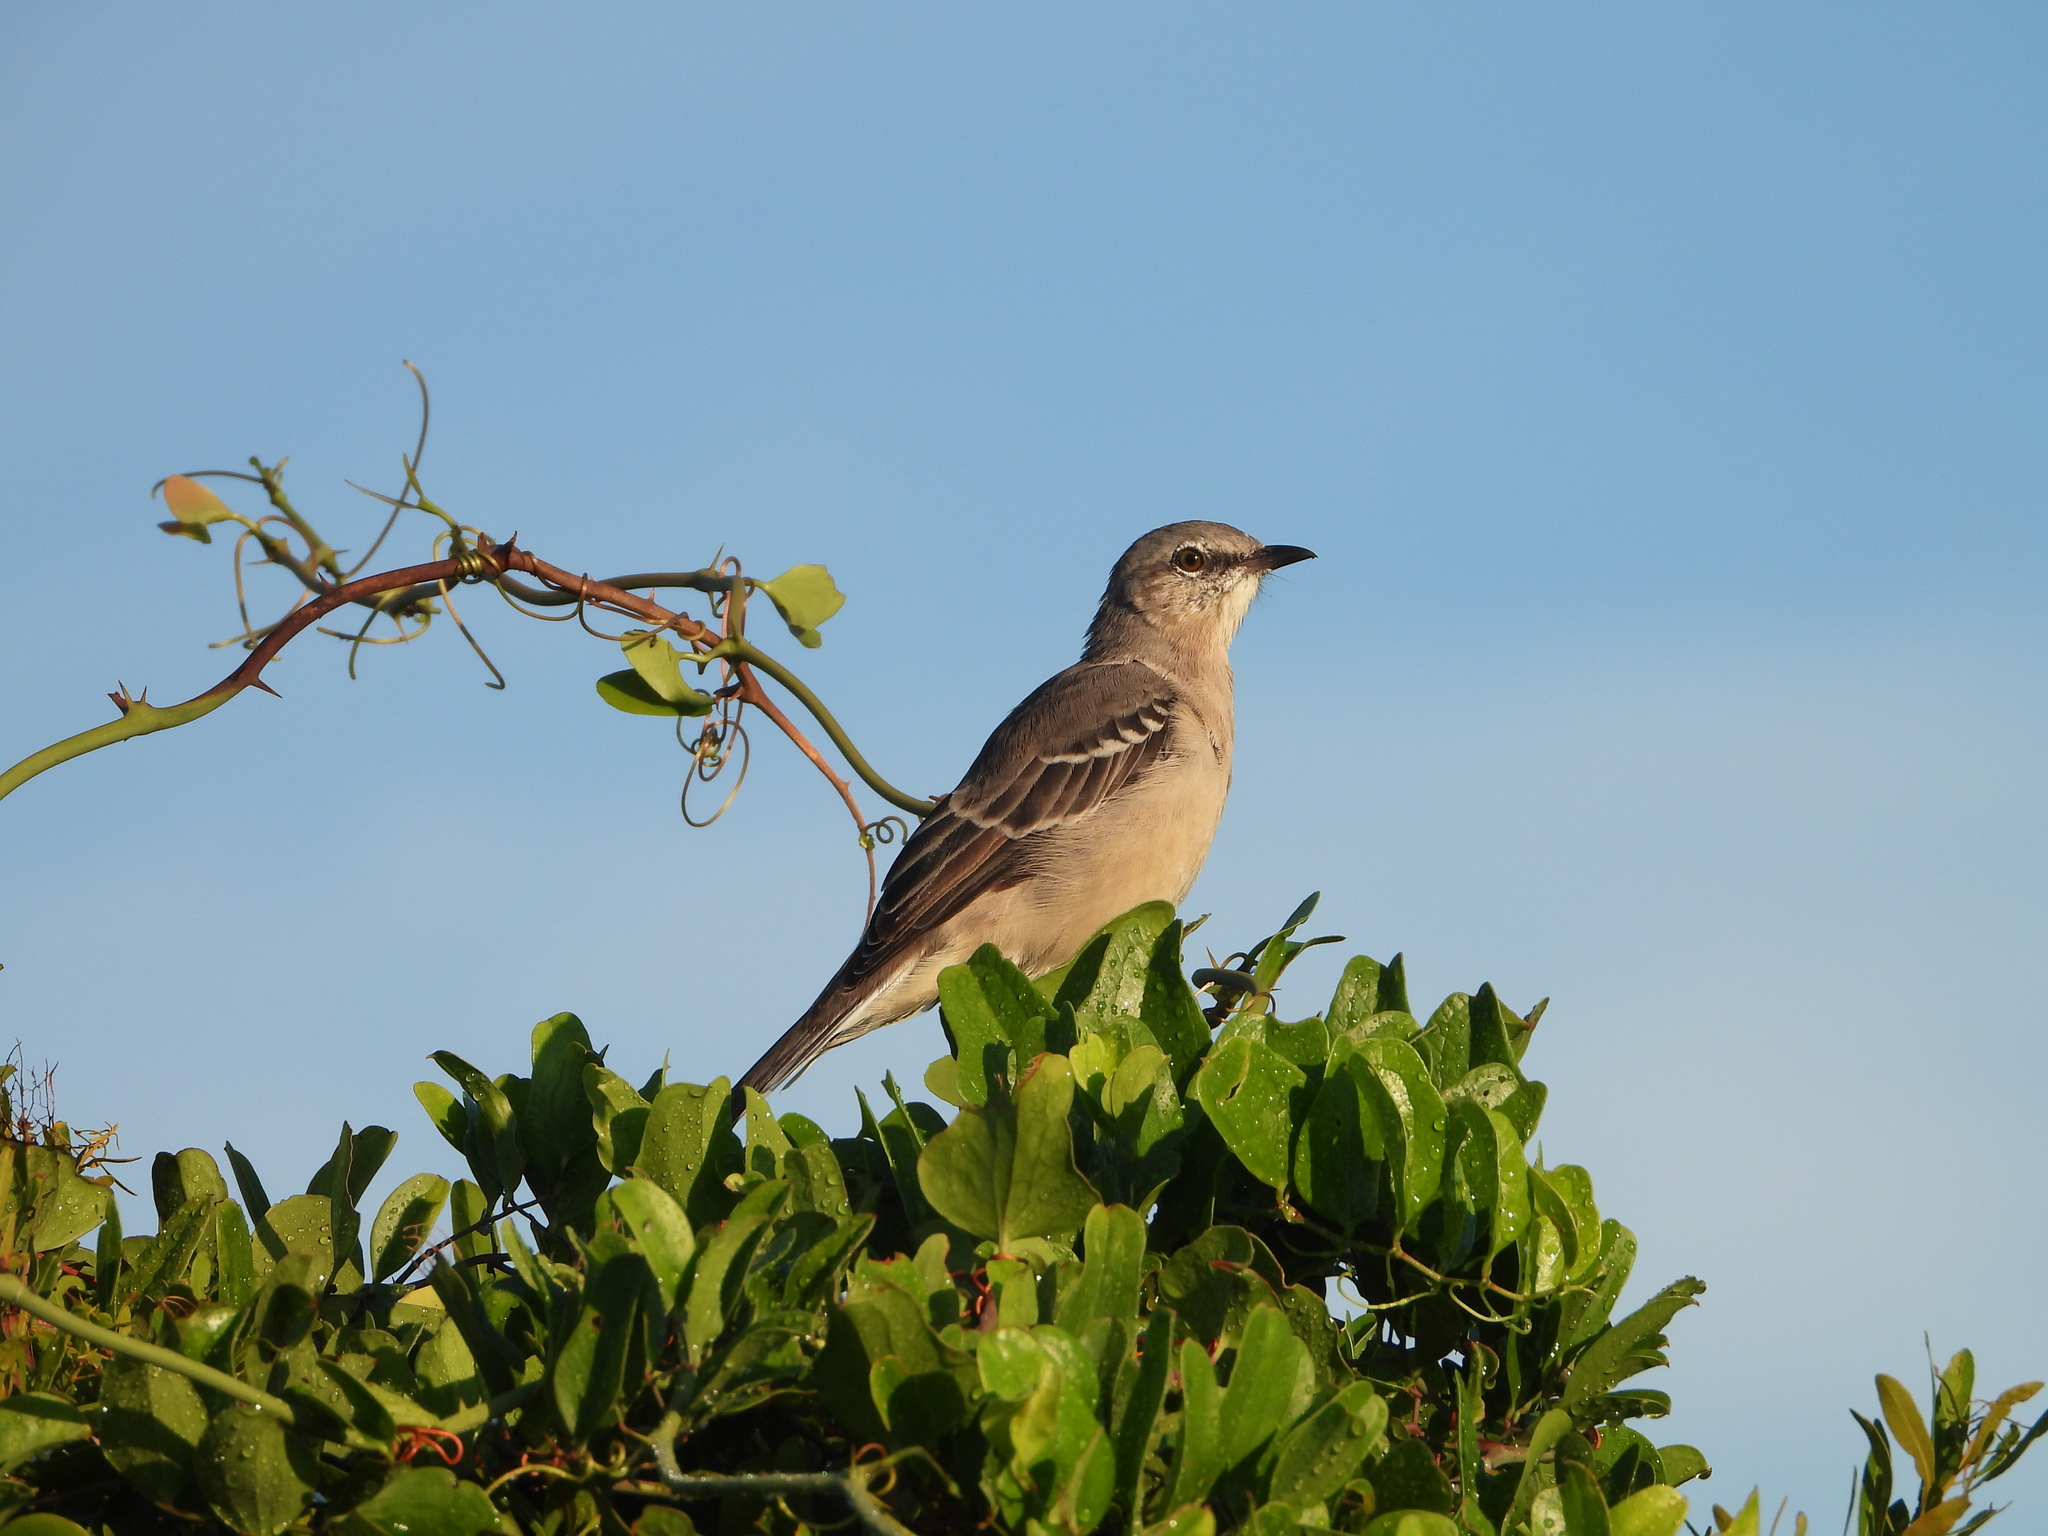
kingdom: Animalia
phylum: Chordata
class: Aves
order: Passeriformes
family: Mimidae
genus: Mimus
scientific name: Mimus polyglottos
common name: Northern mockingbird
